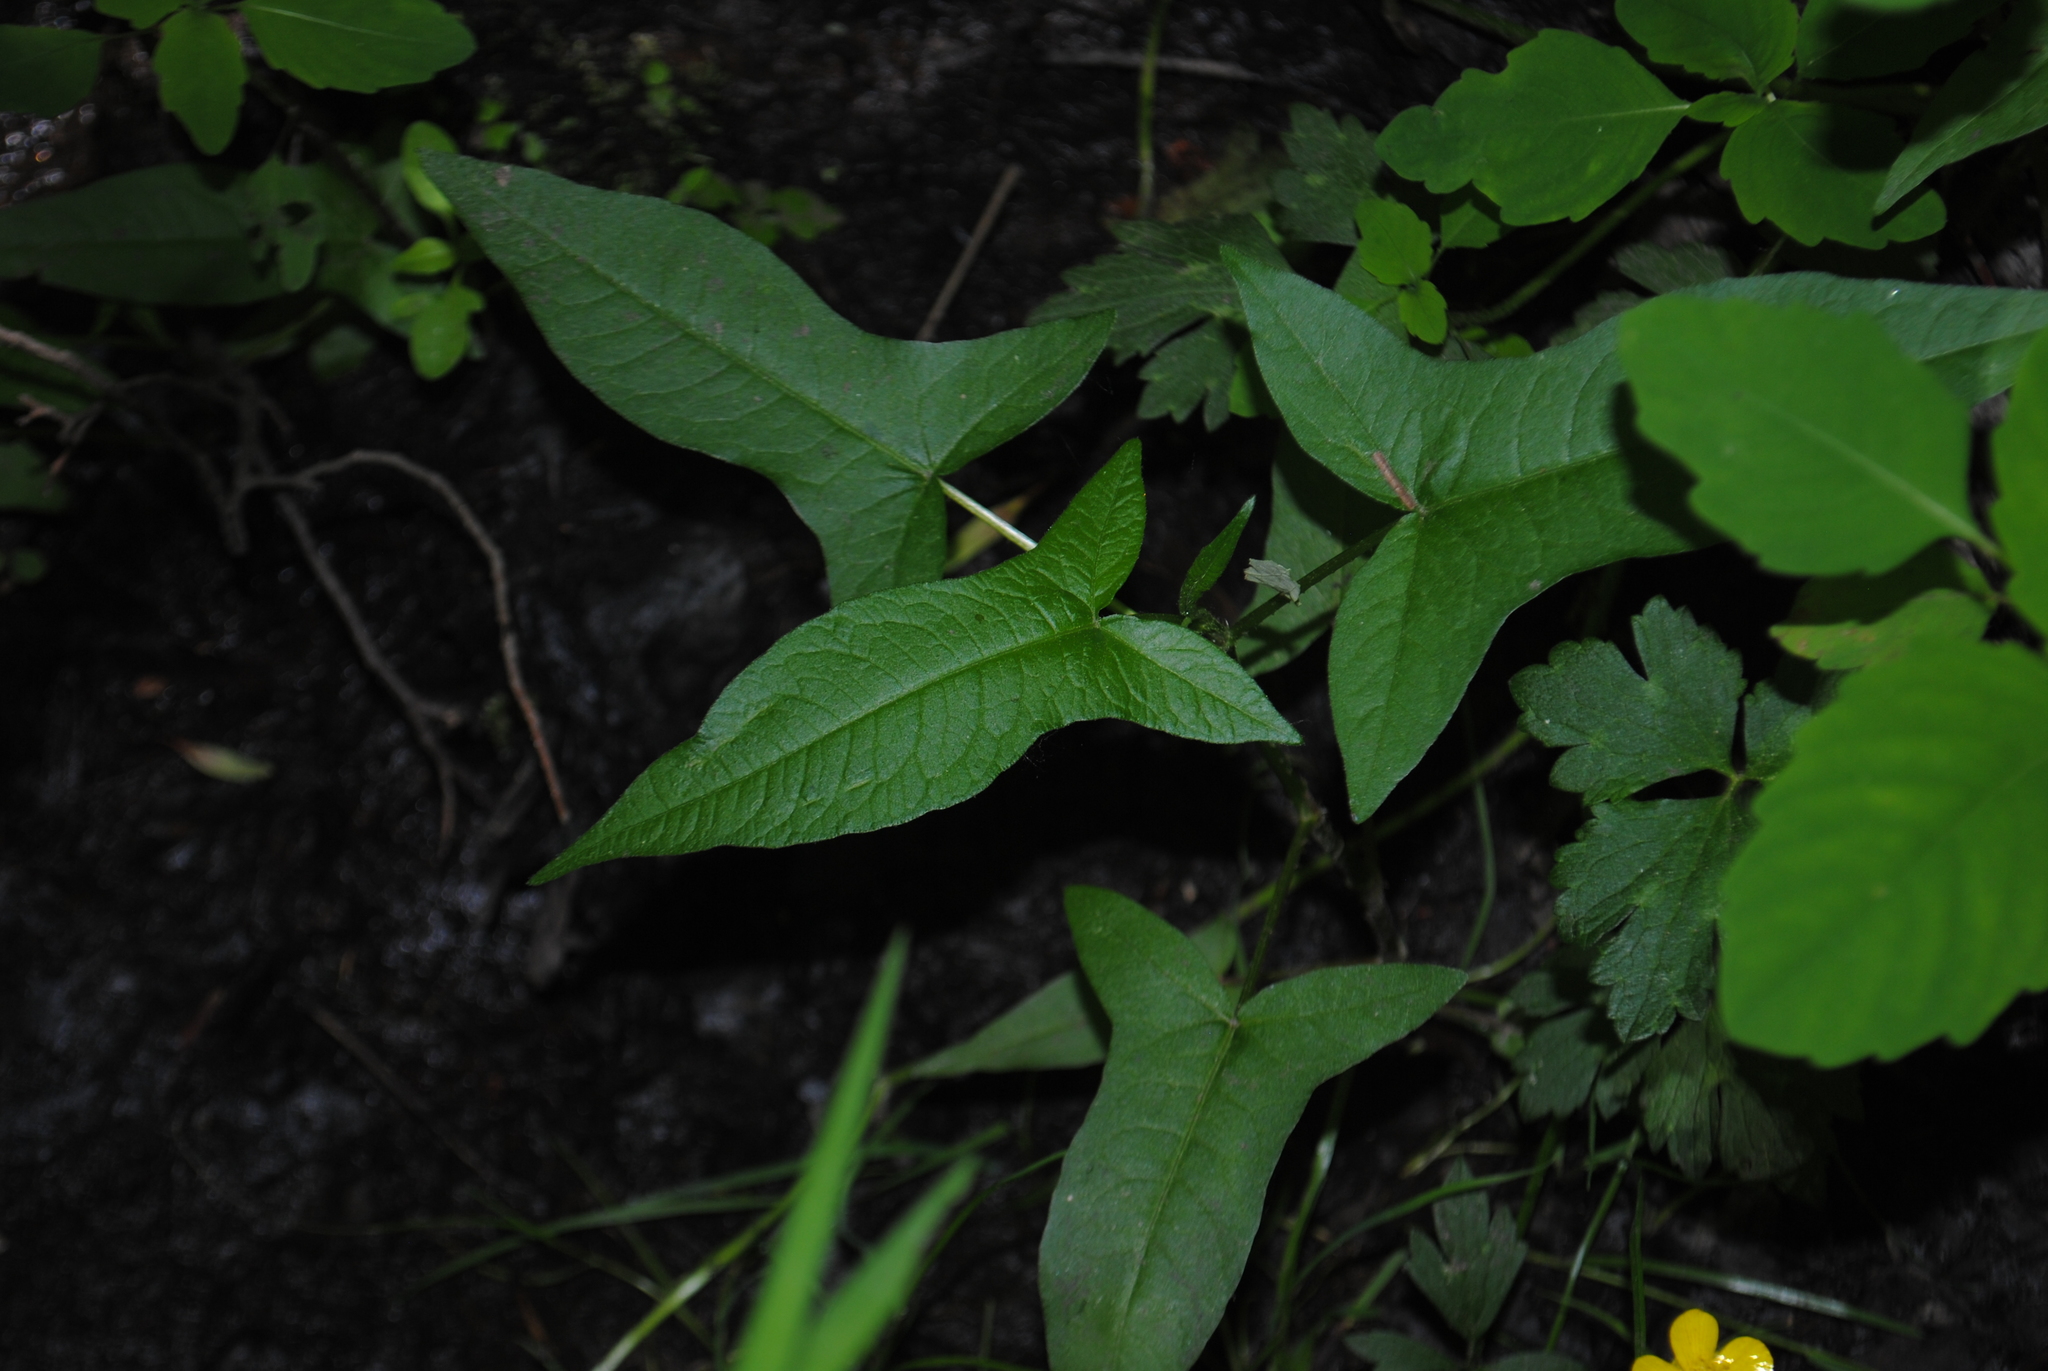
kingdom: Plantae
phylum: Tracheophyta
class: Magnoliopsida
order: Caryophyllales
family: Polygonaceae
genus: Persicaria
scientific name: Persicaria arifolia
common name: Halberd-leaved tear-thumb
